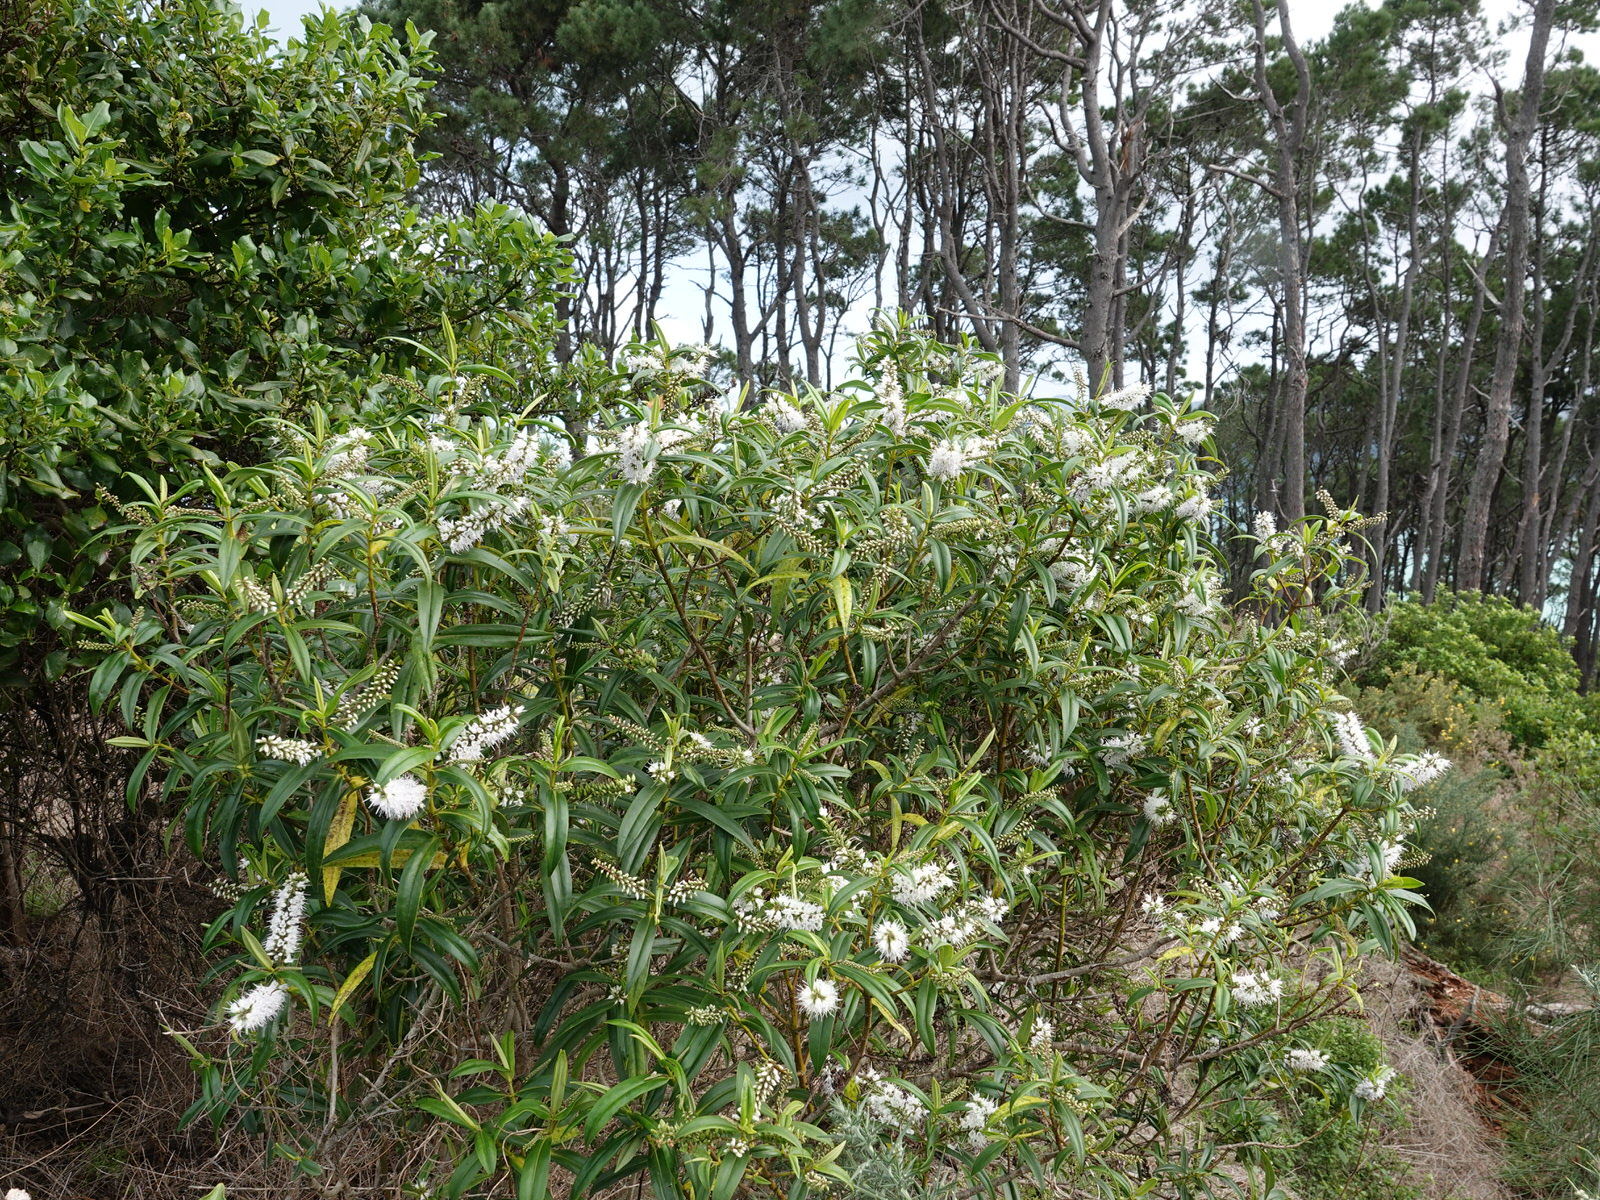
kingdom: Plantae
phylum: Tracheophyta
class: Magnoliopsida
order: Lamiales
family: Plantaginaceae
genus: Veronica
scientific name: Veronica macrocarpa
